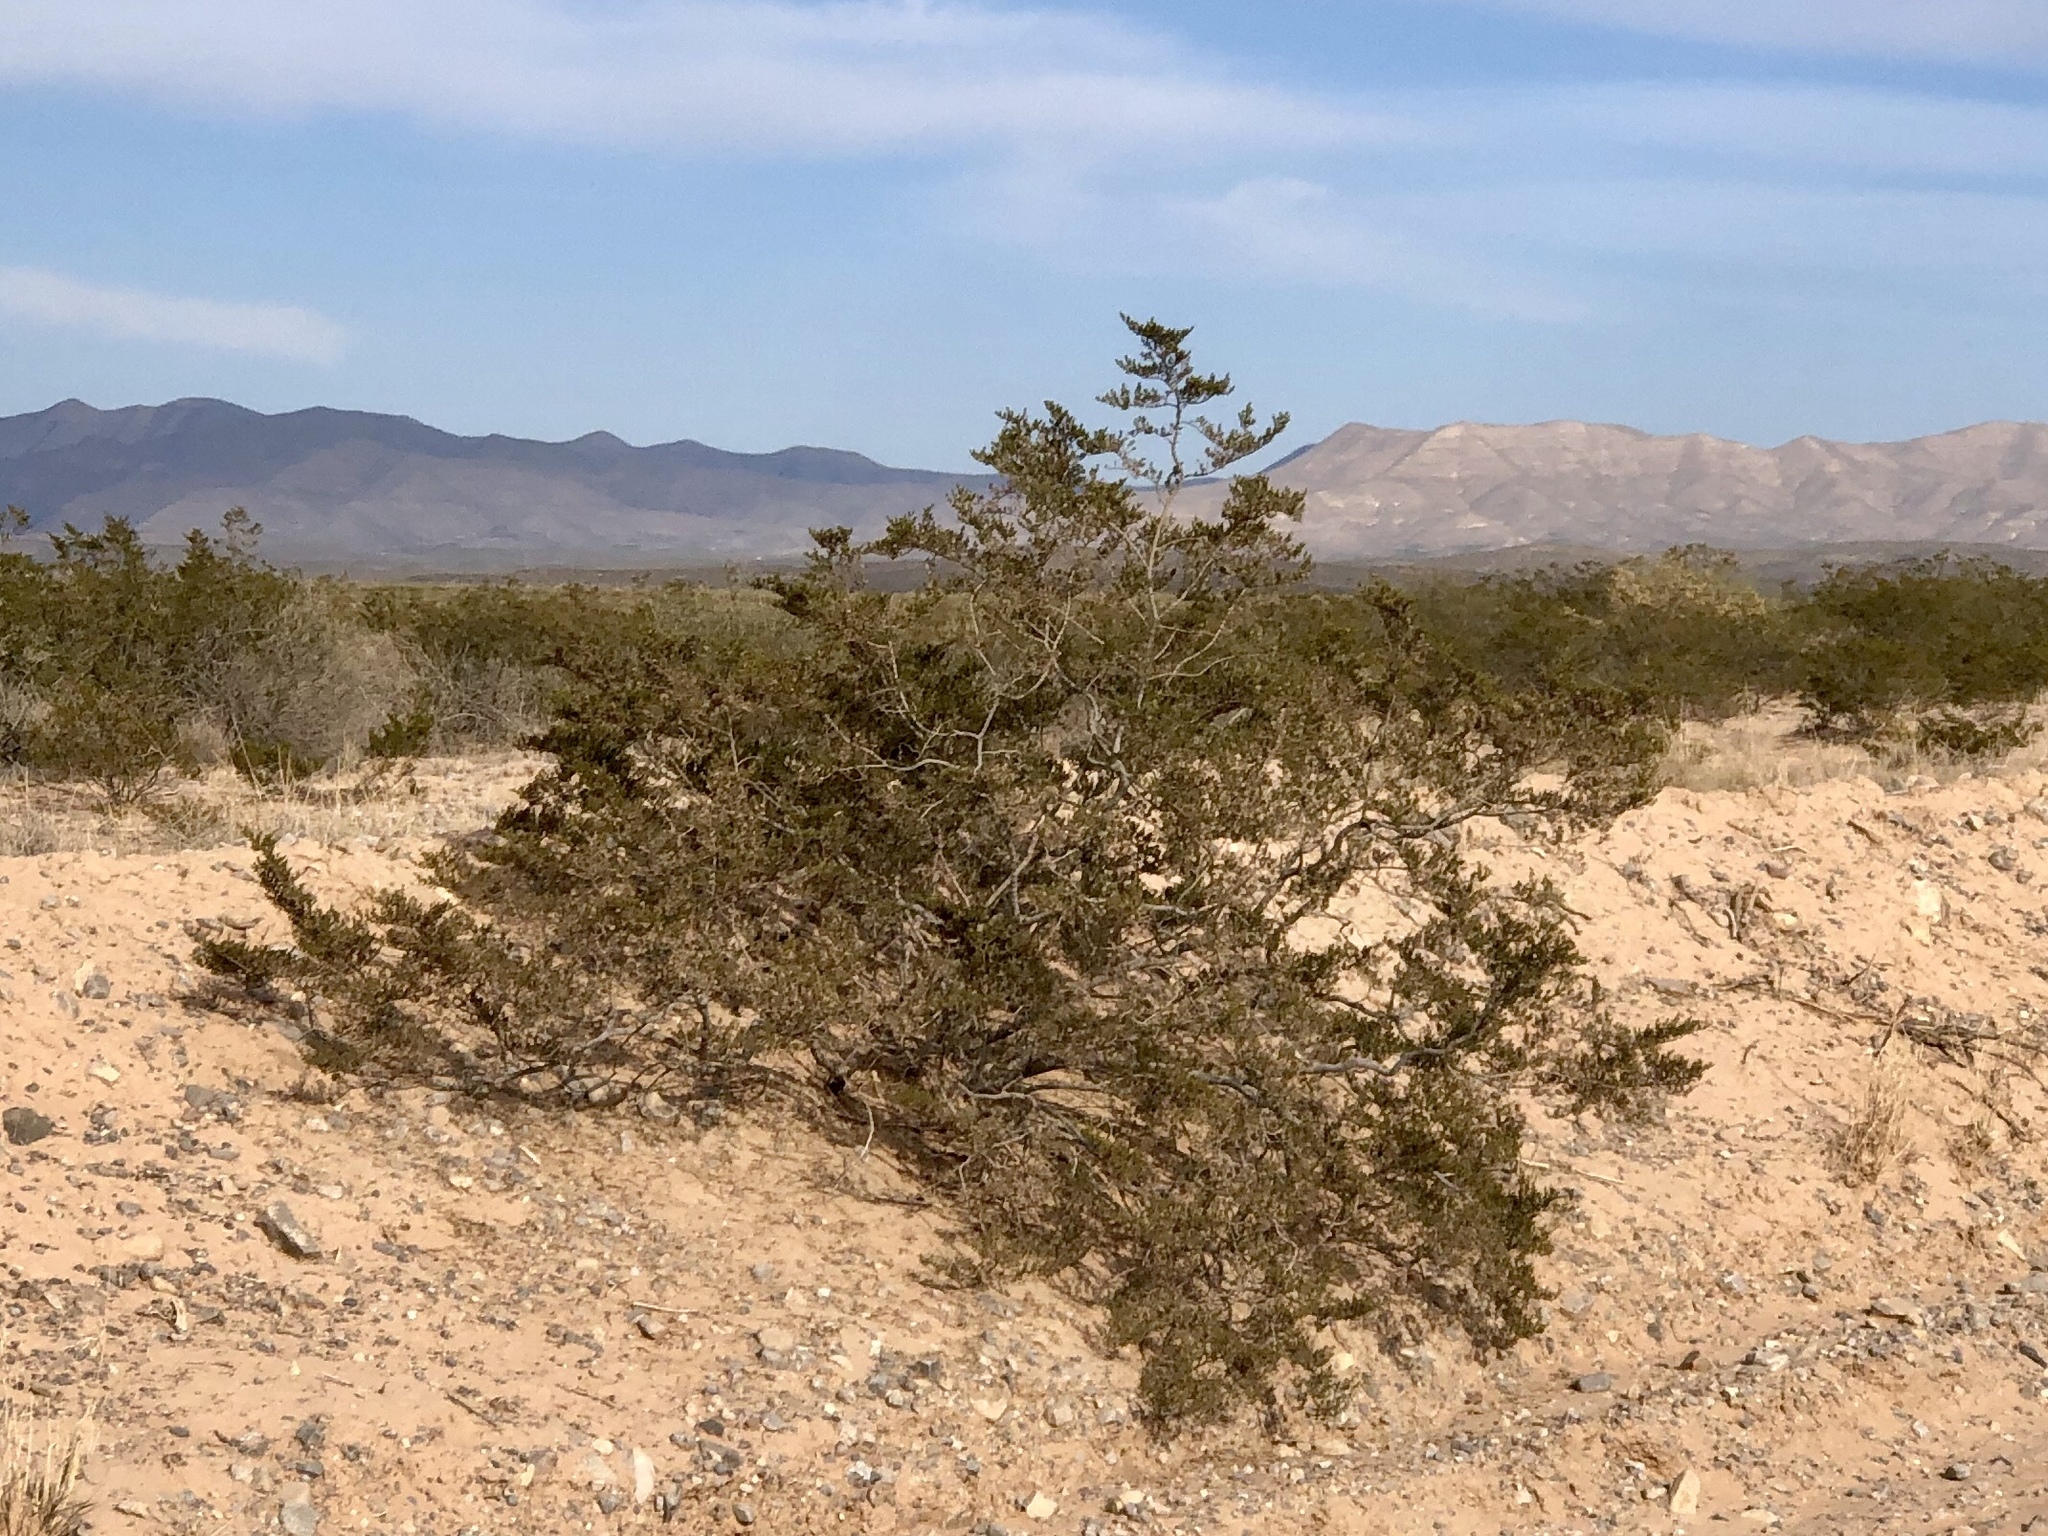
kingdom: Plantae
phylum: Tracheophyta
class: Magnoliopsida
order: Zygophyllales
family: Zygophyllaceae
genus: Larrea
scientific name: Larrea tridentata
